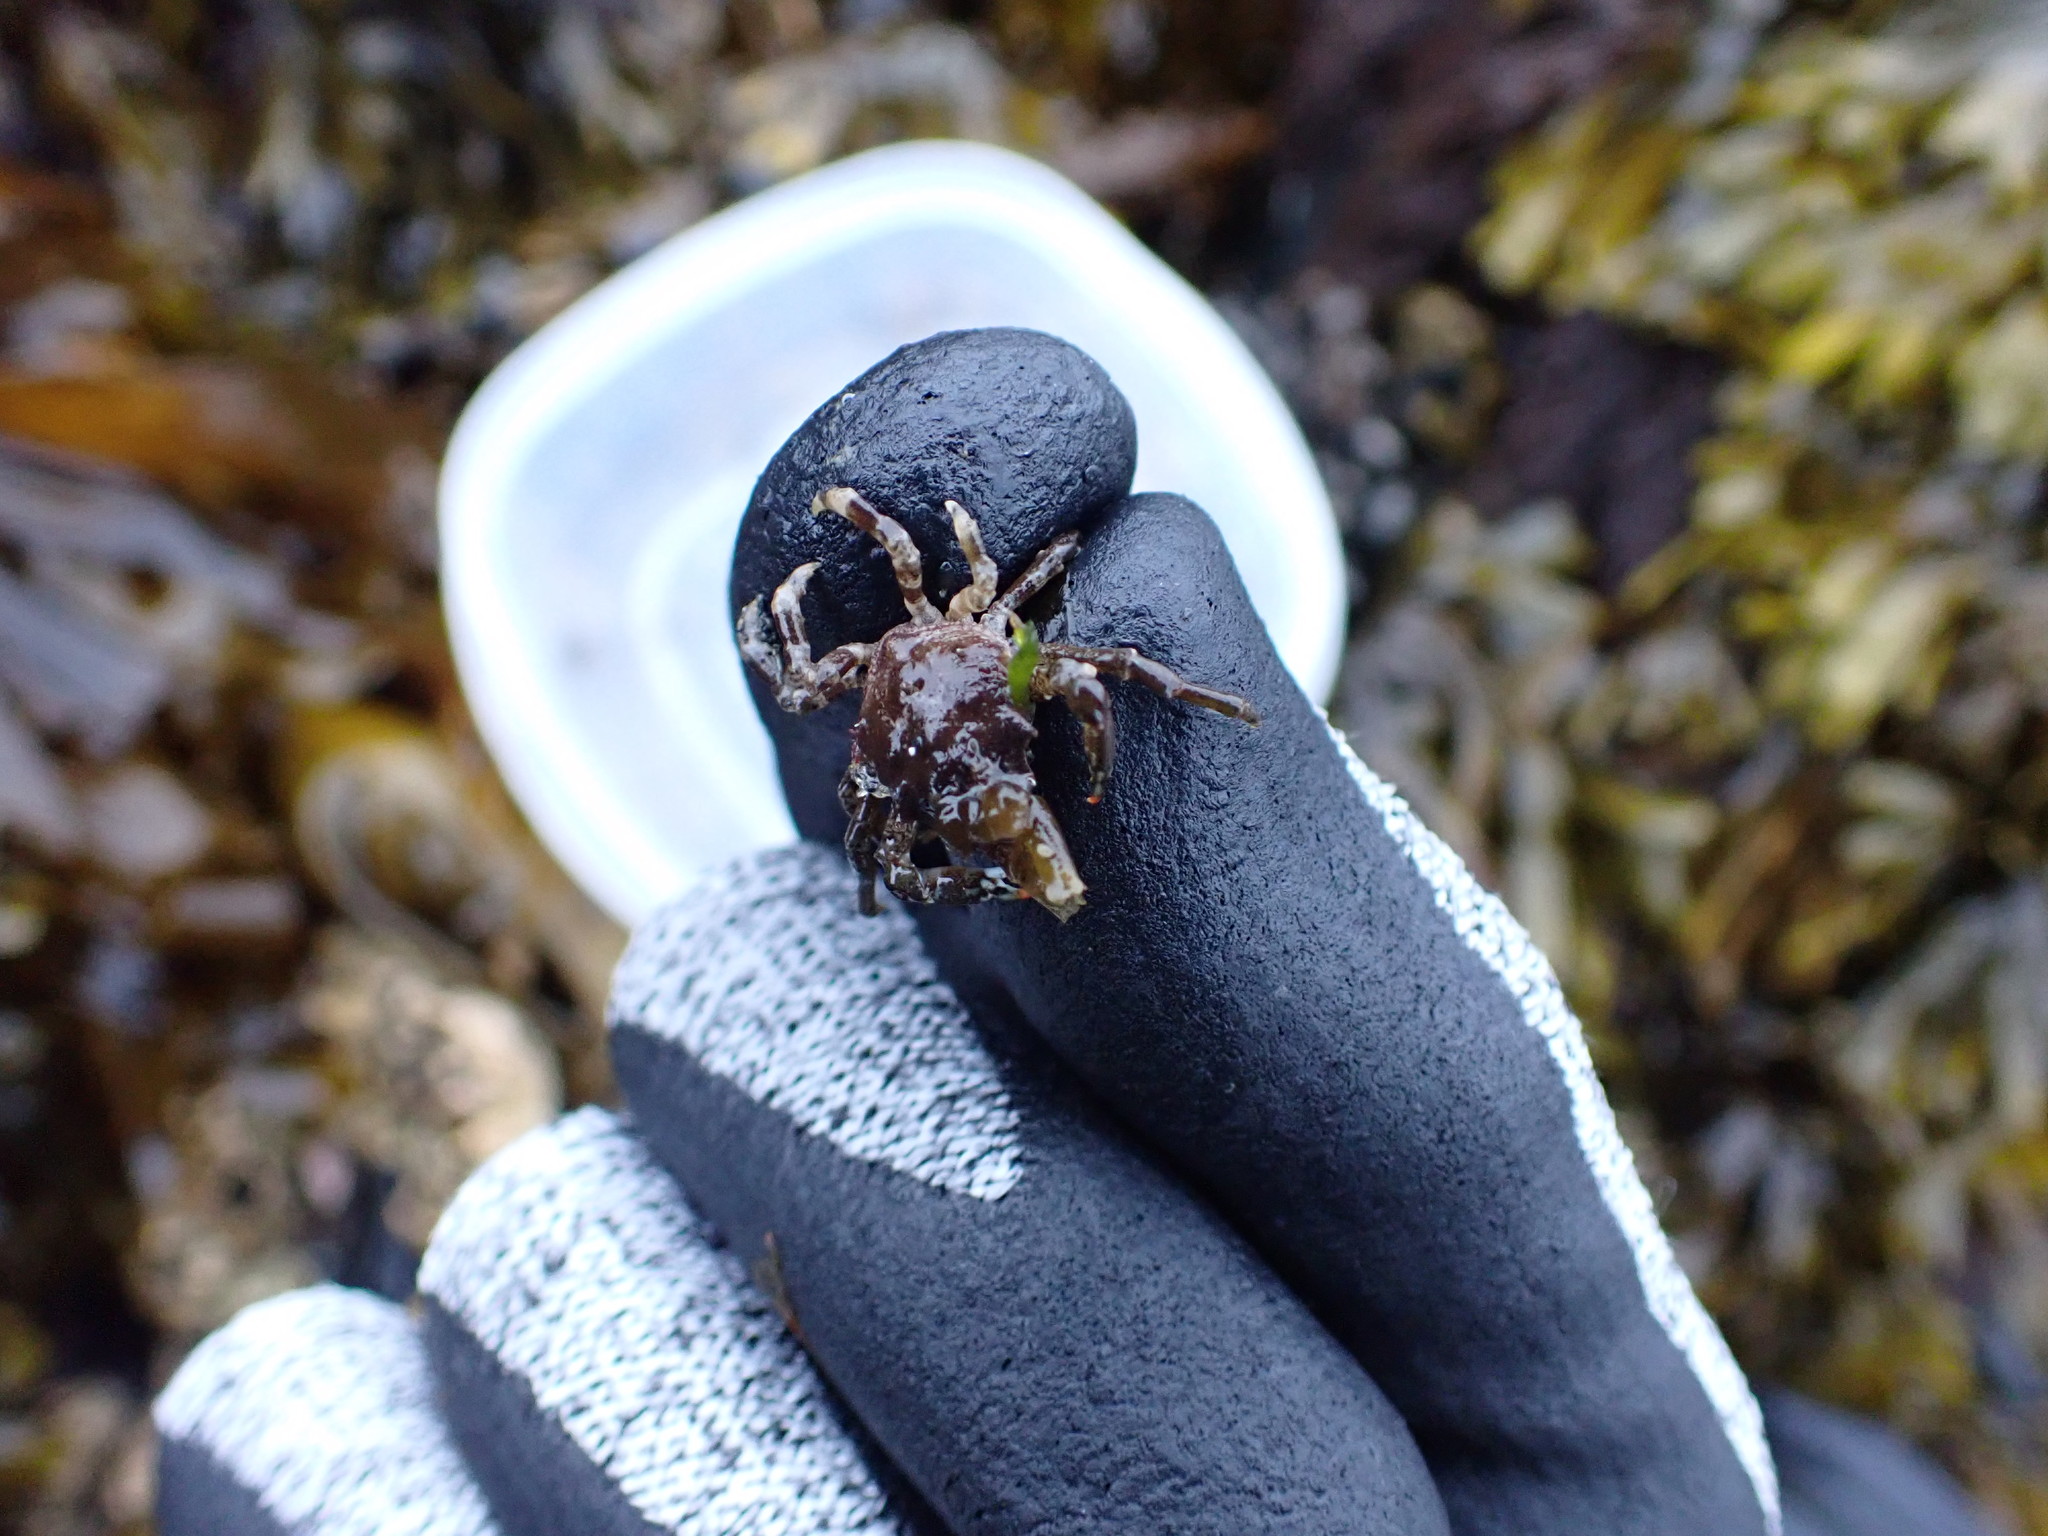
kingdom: Animalia
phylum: Arthropoda
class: Malacostraca
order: Decapoda
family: Epialtidae
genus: Pugettia
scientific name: Pugettia gracilis
